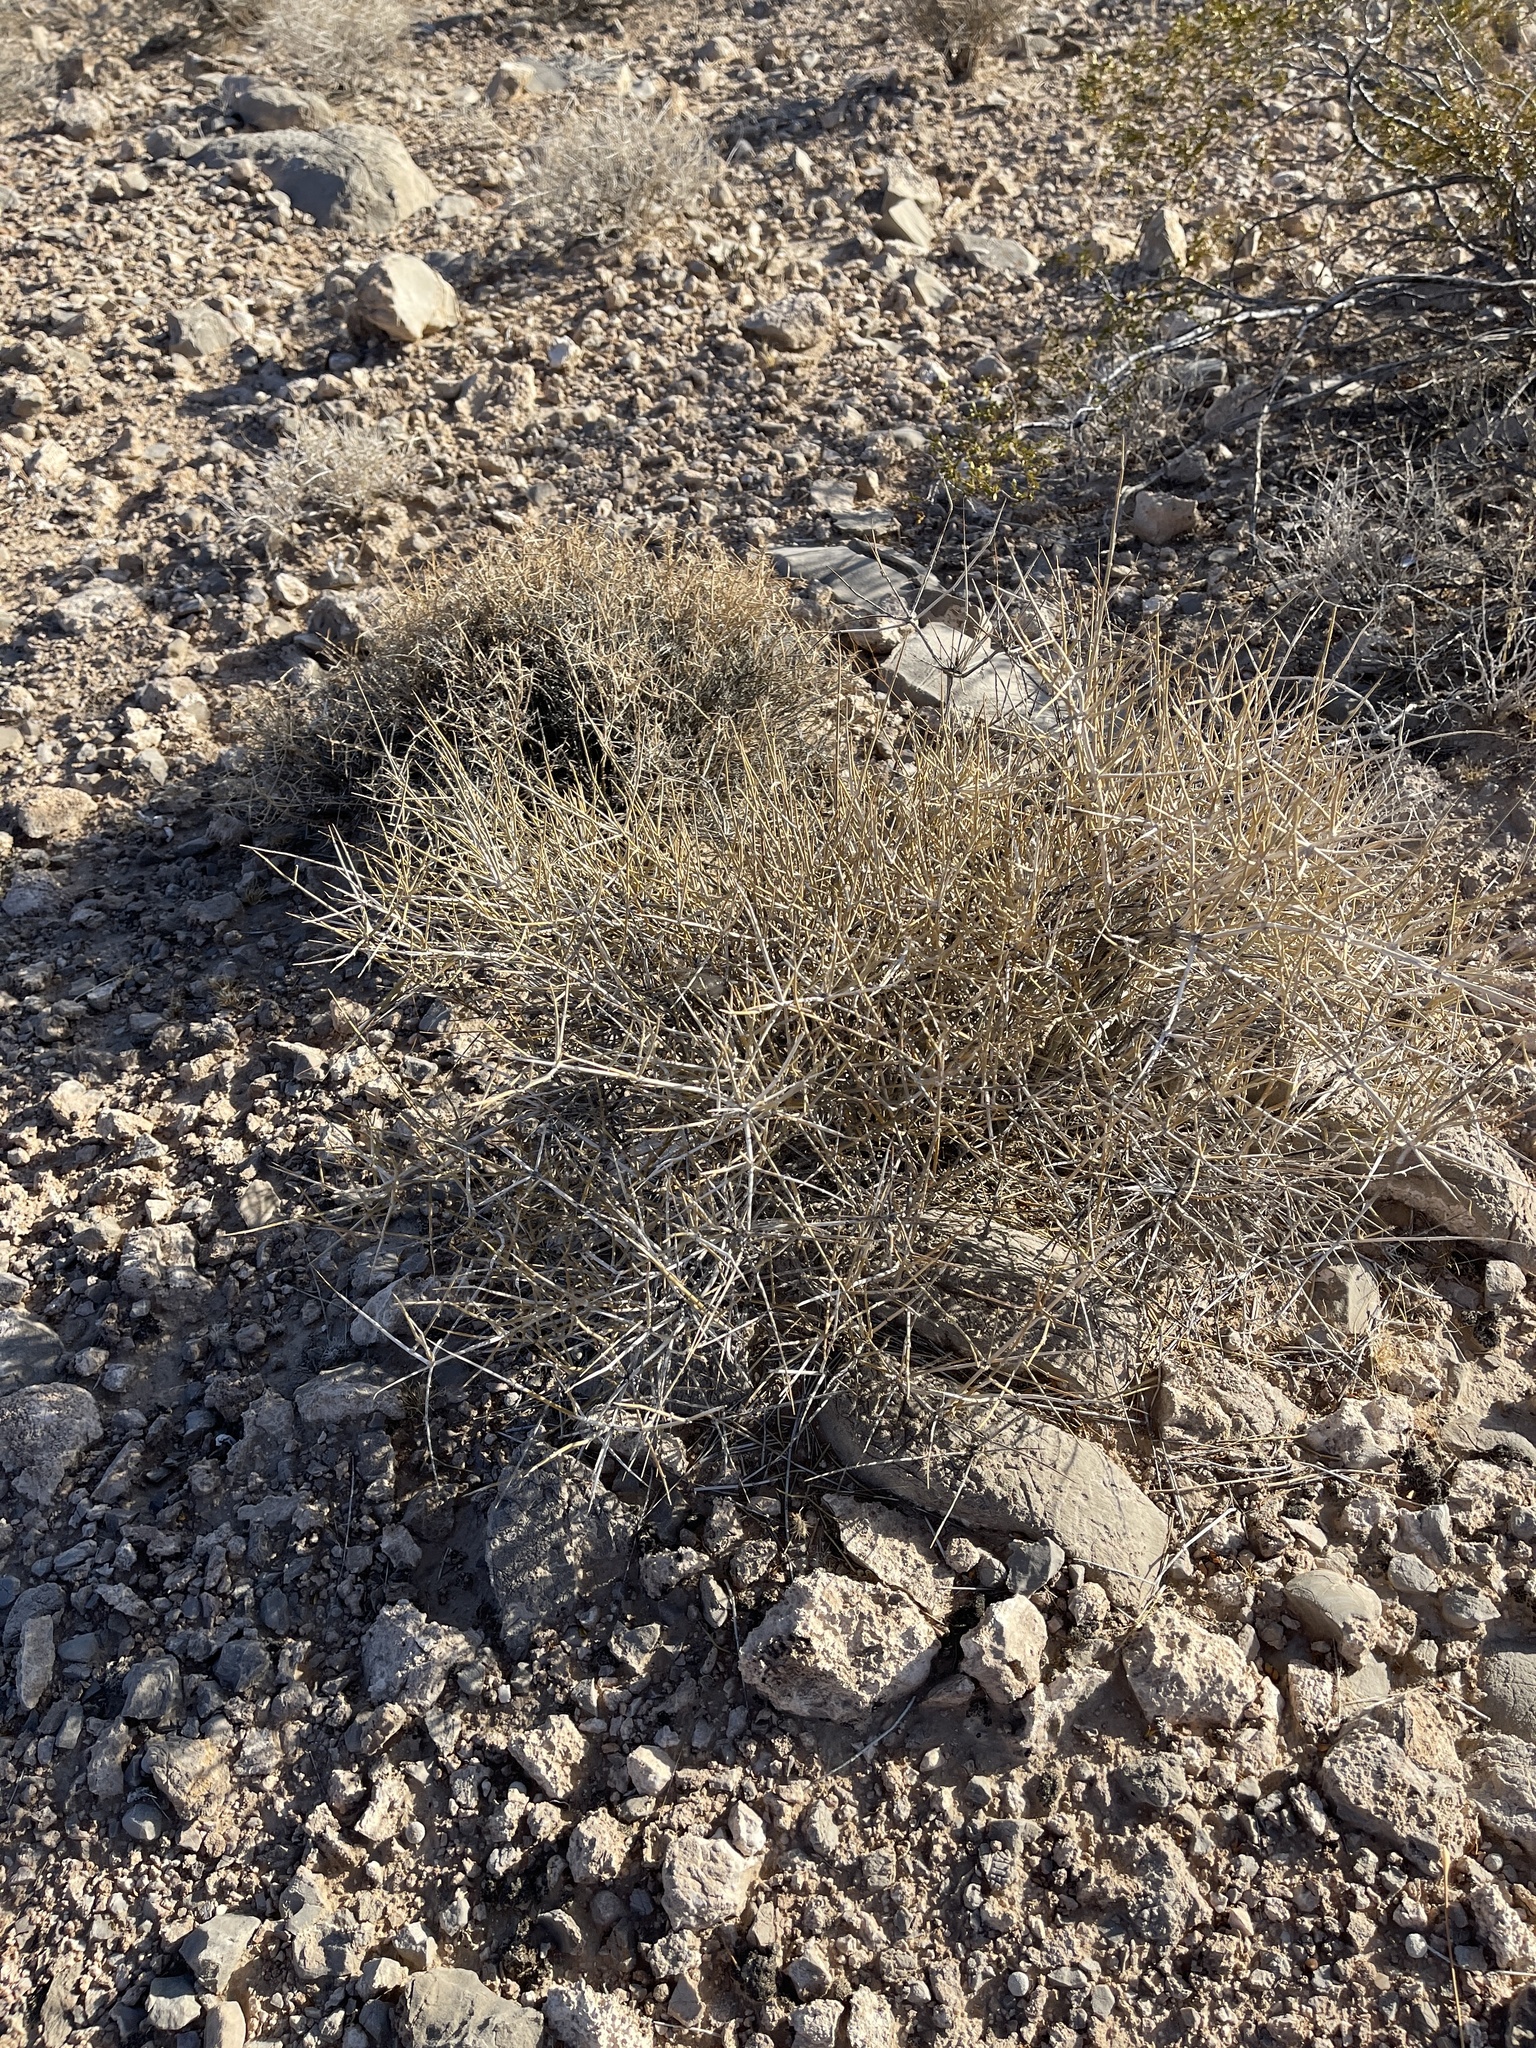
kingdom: Plantae
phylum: Tracheophyta
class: Gnetopsida
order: Ephedrales
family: Ephedraceae
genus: Ephedra
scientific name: Ephedra nevadensis
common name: Gray ephedra
